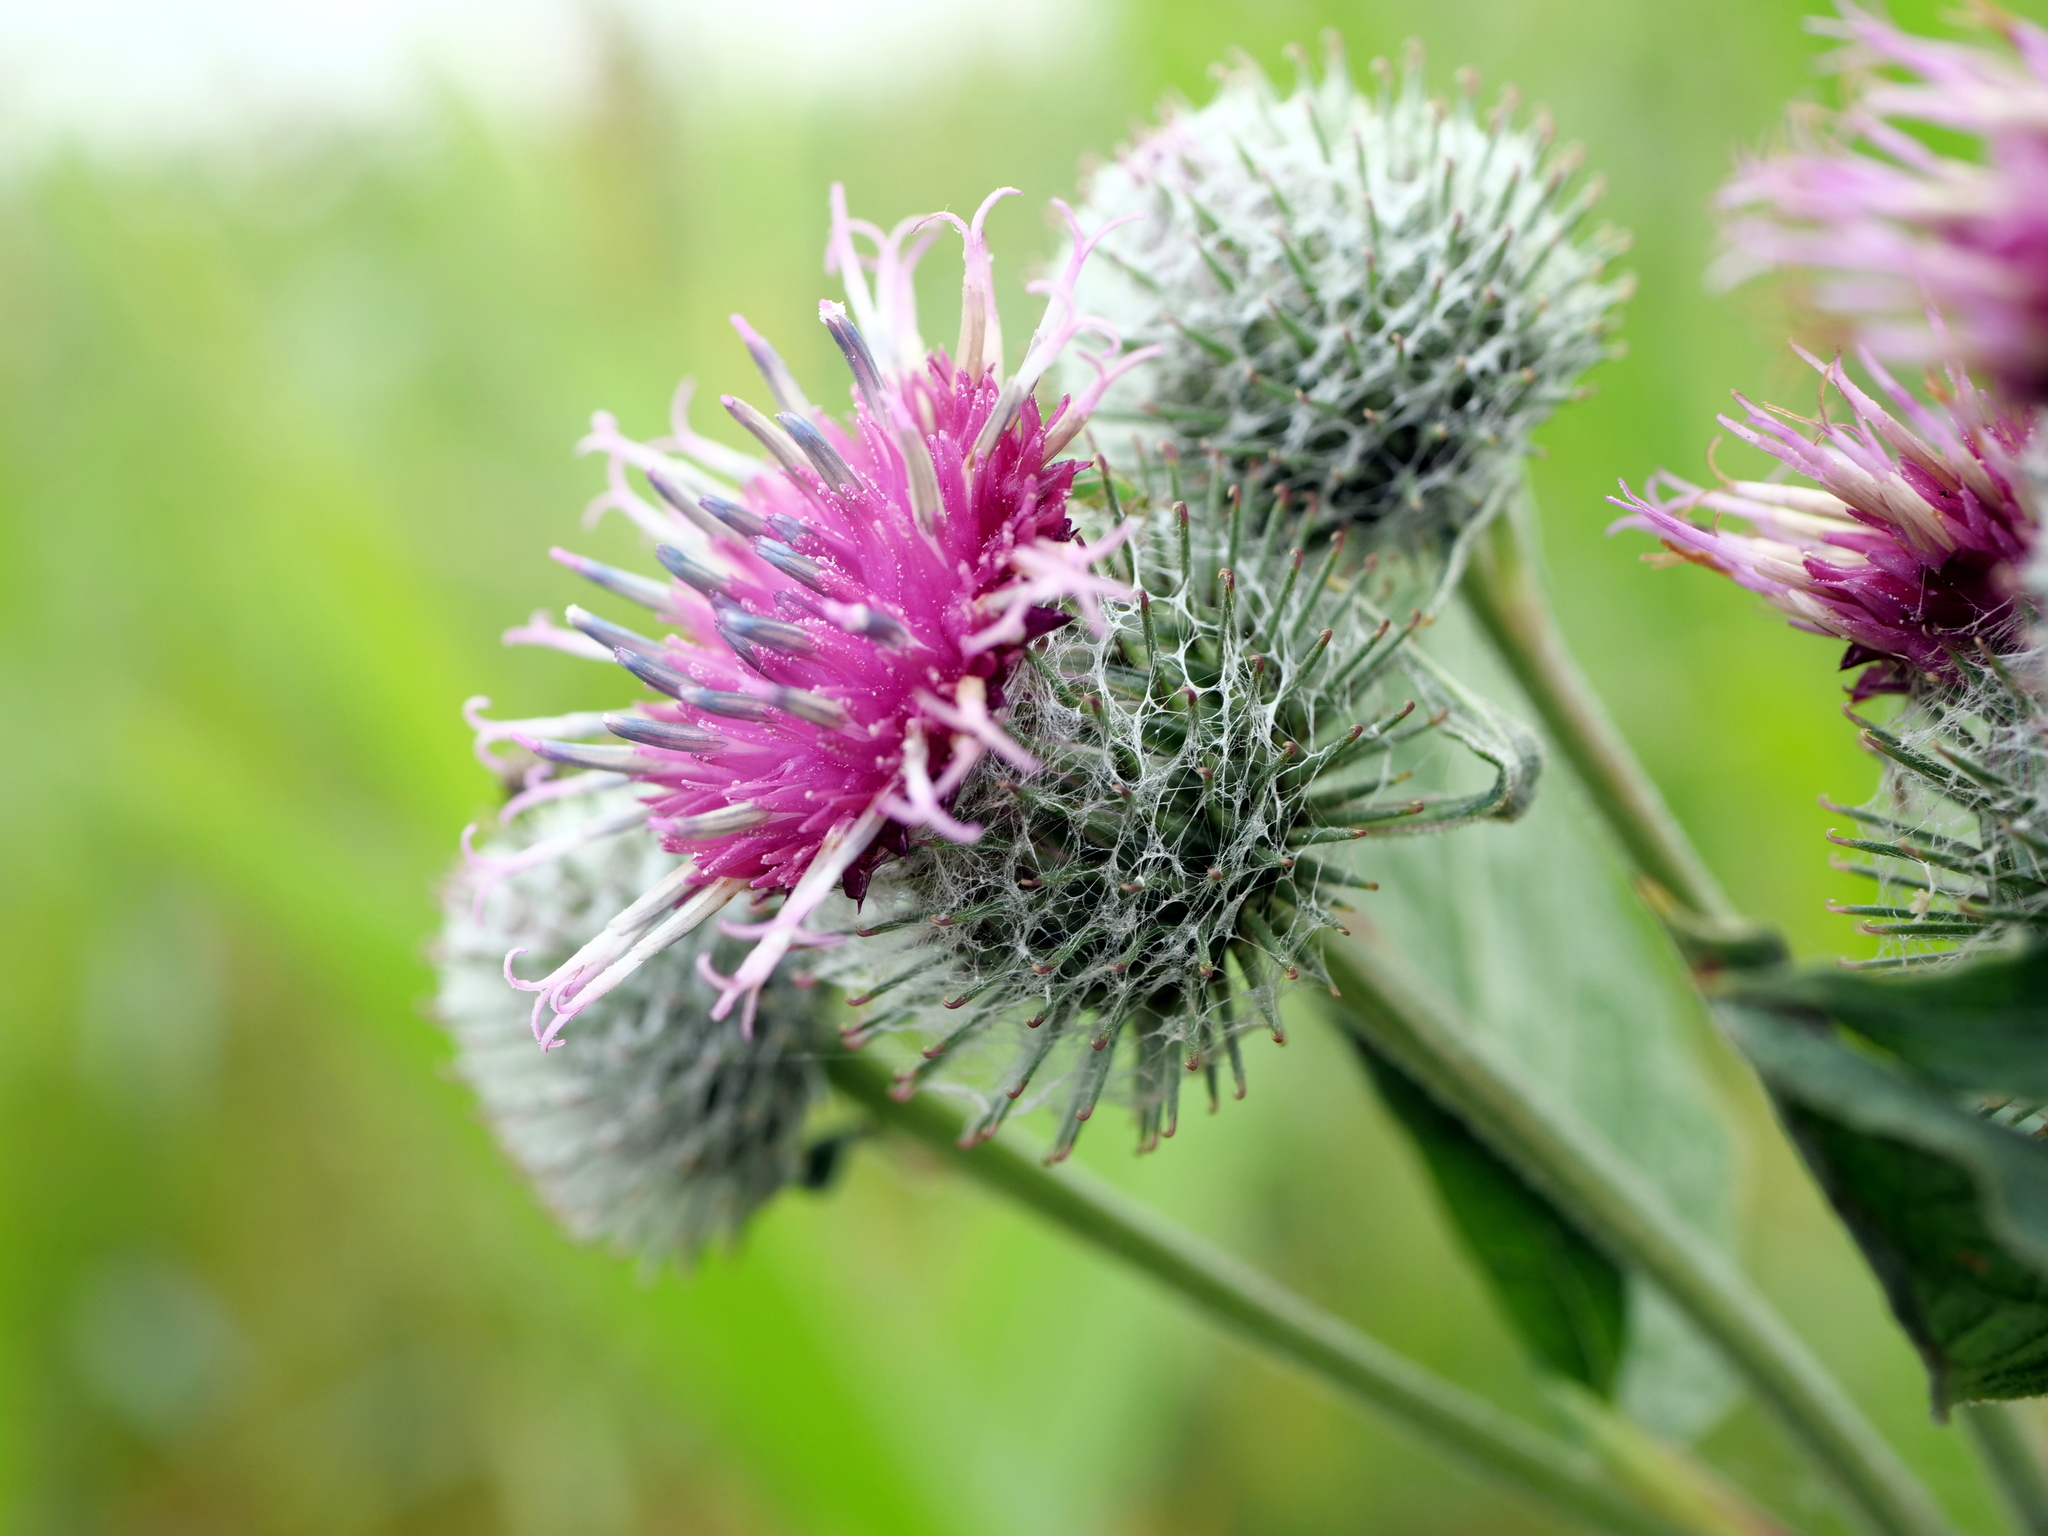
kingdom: Plantae
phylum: Tracheophyta
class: Magnoliopsida
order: Asterales
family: Asteraceae
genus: Arctium
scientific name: Arctium tomentosum
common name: Woolly burdock
